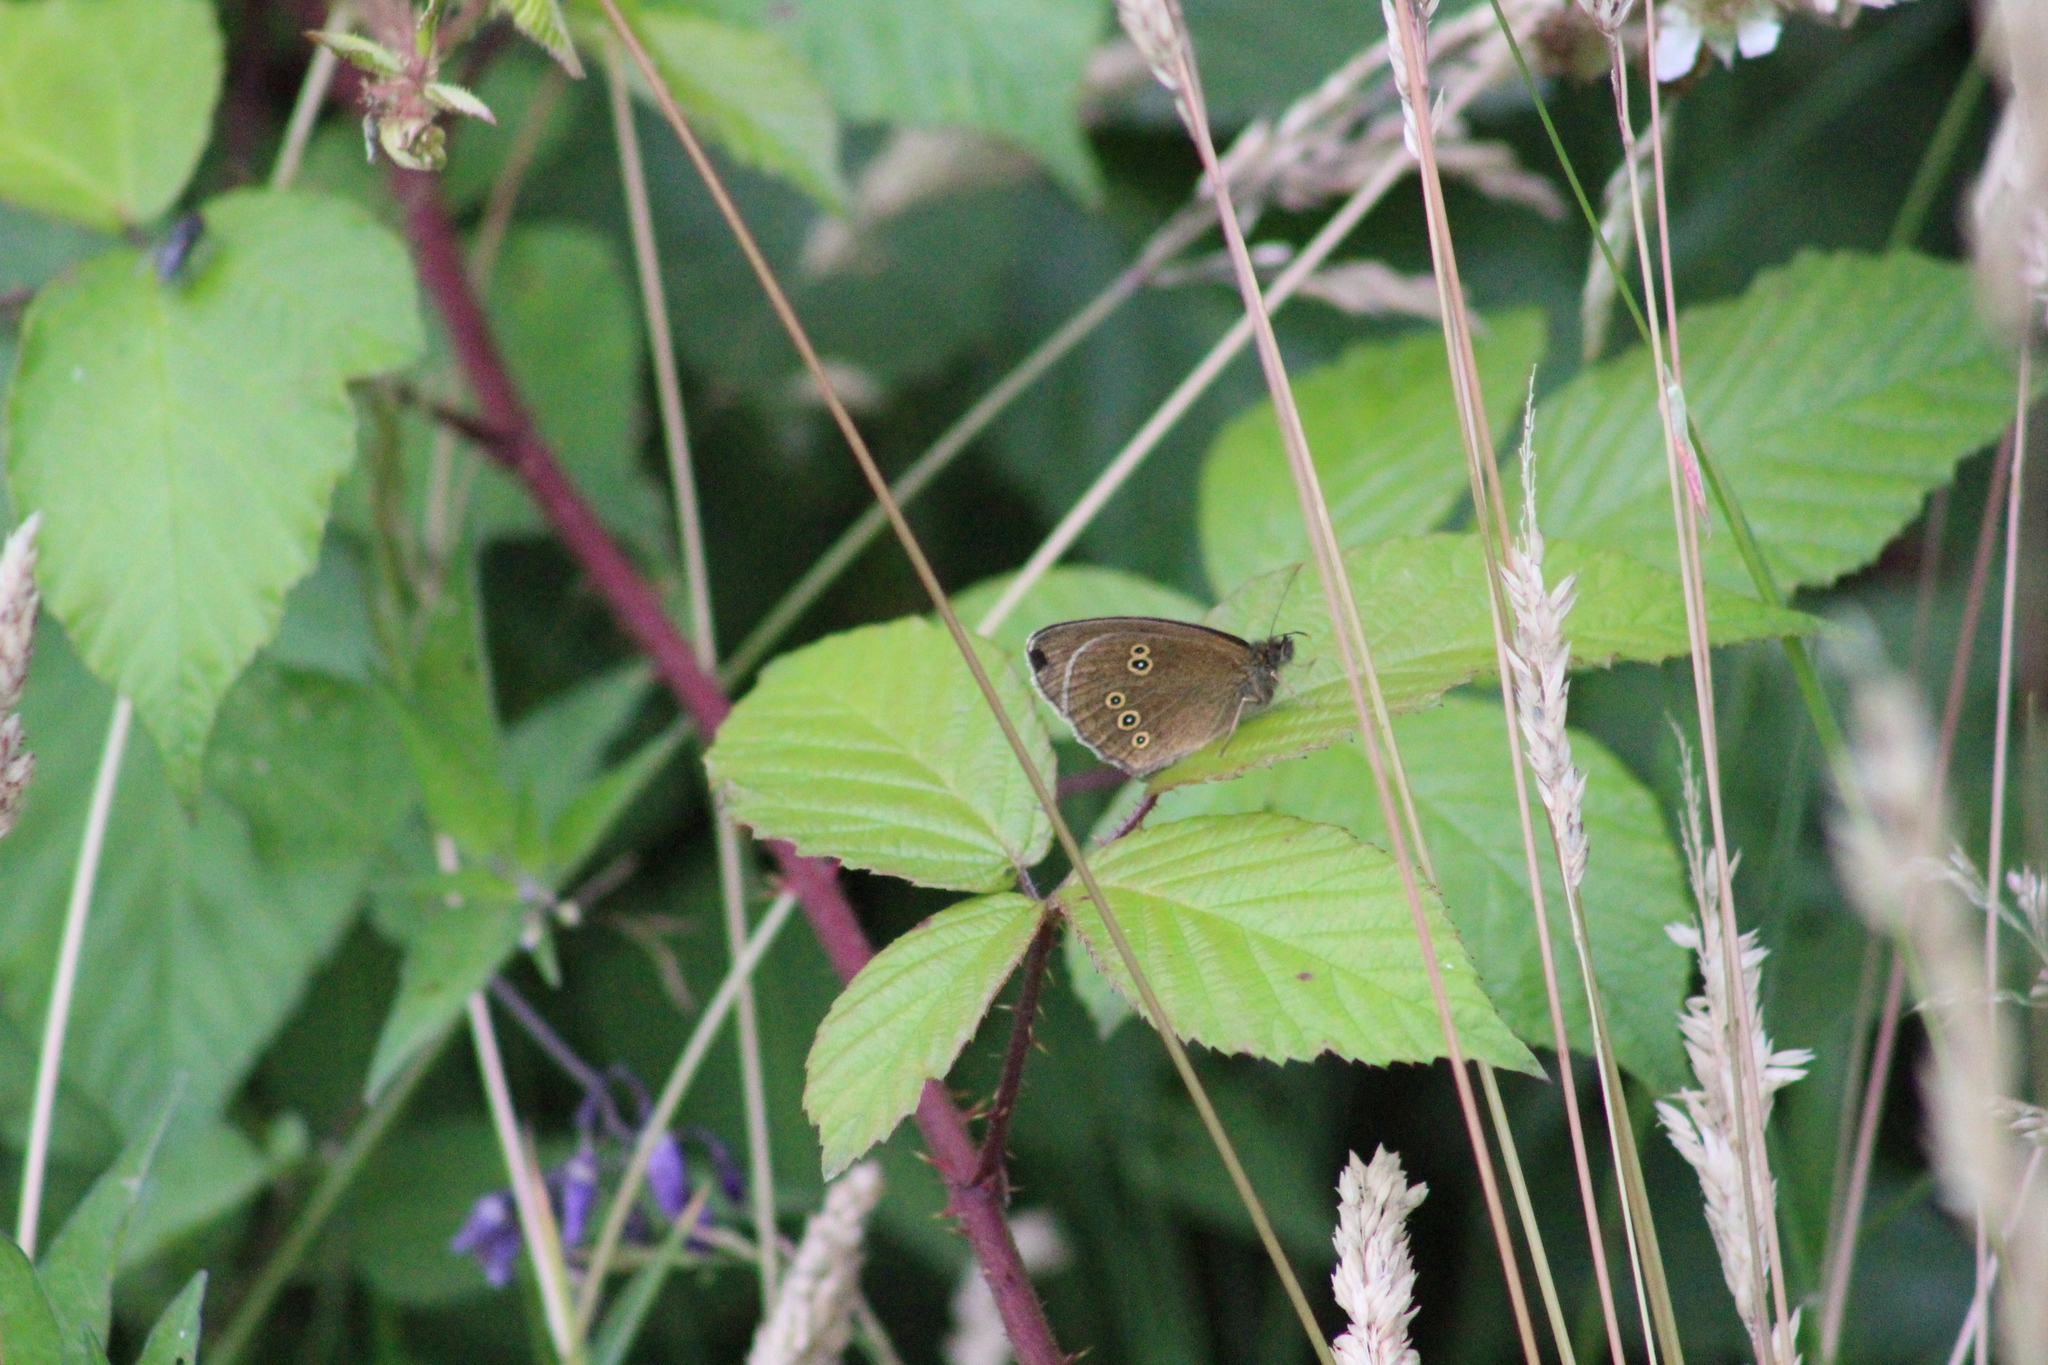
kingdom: Animalia
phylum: Arthropoda
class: Insecta
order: Lepidoptera
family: Nymphalidae
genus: Aphantopus
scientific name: Aphantopus hyperantus
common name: Ringlet
